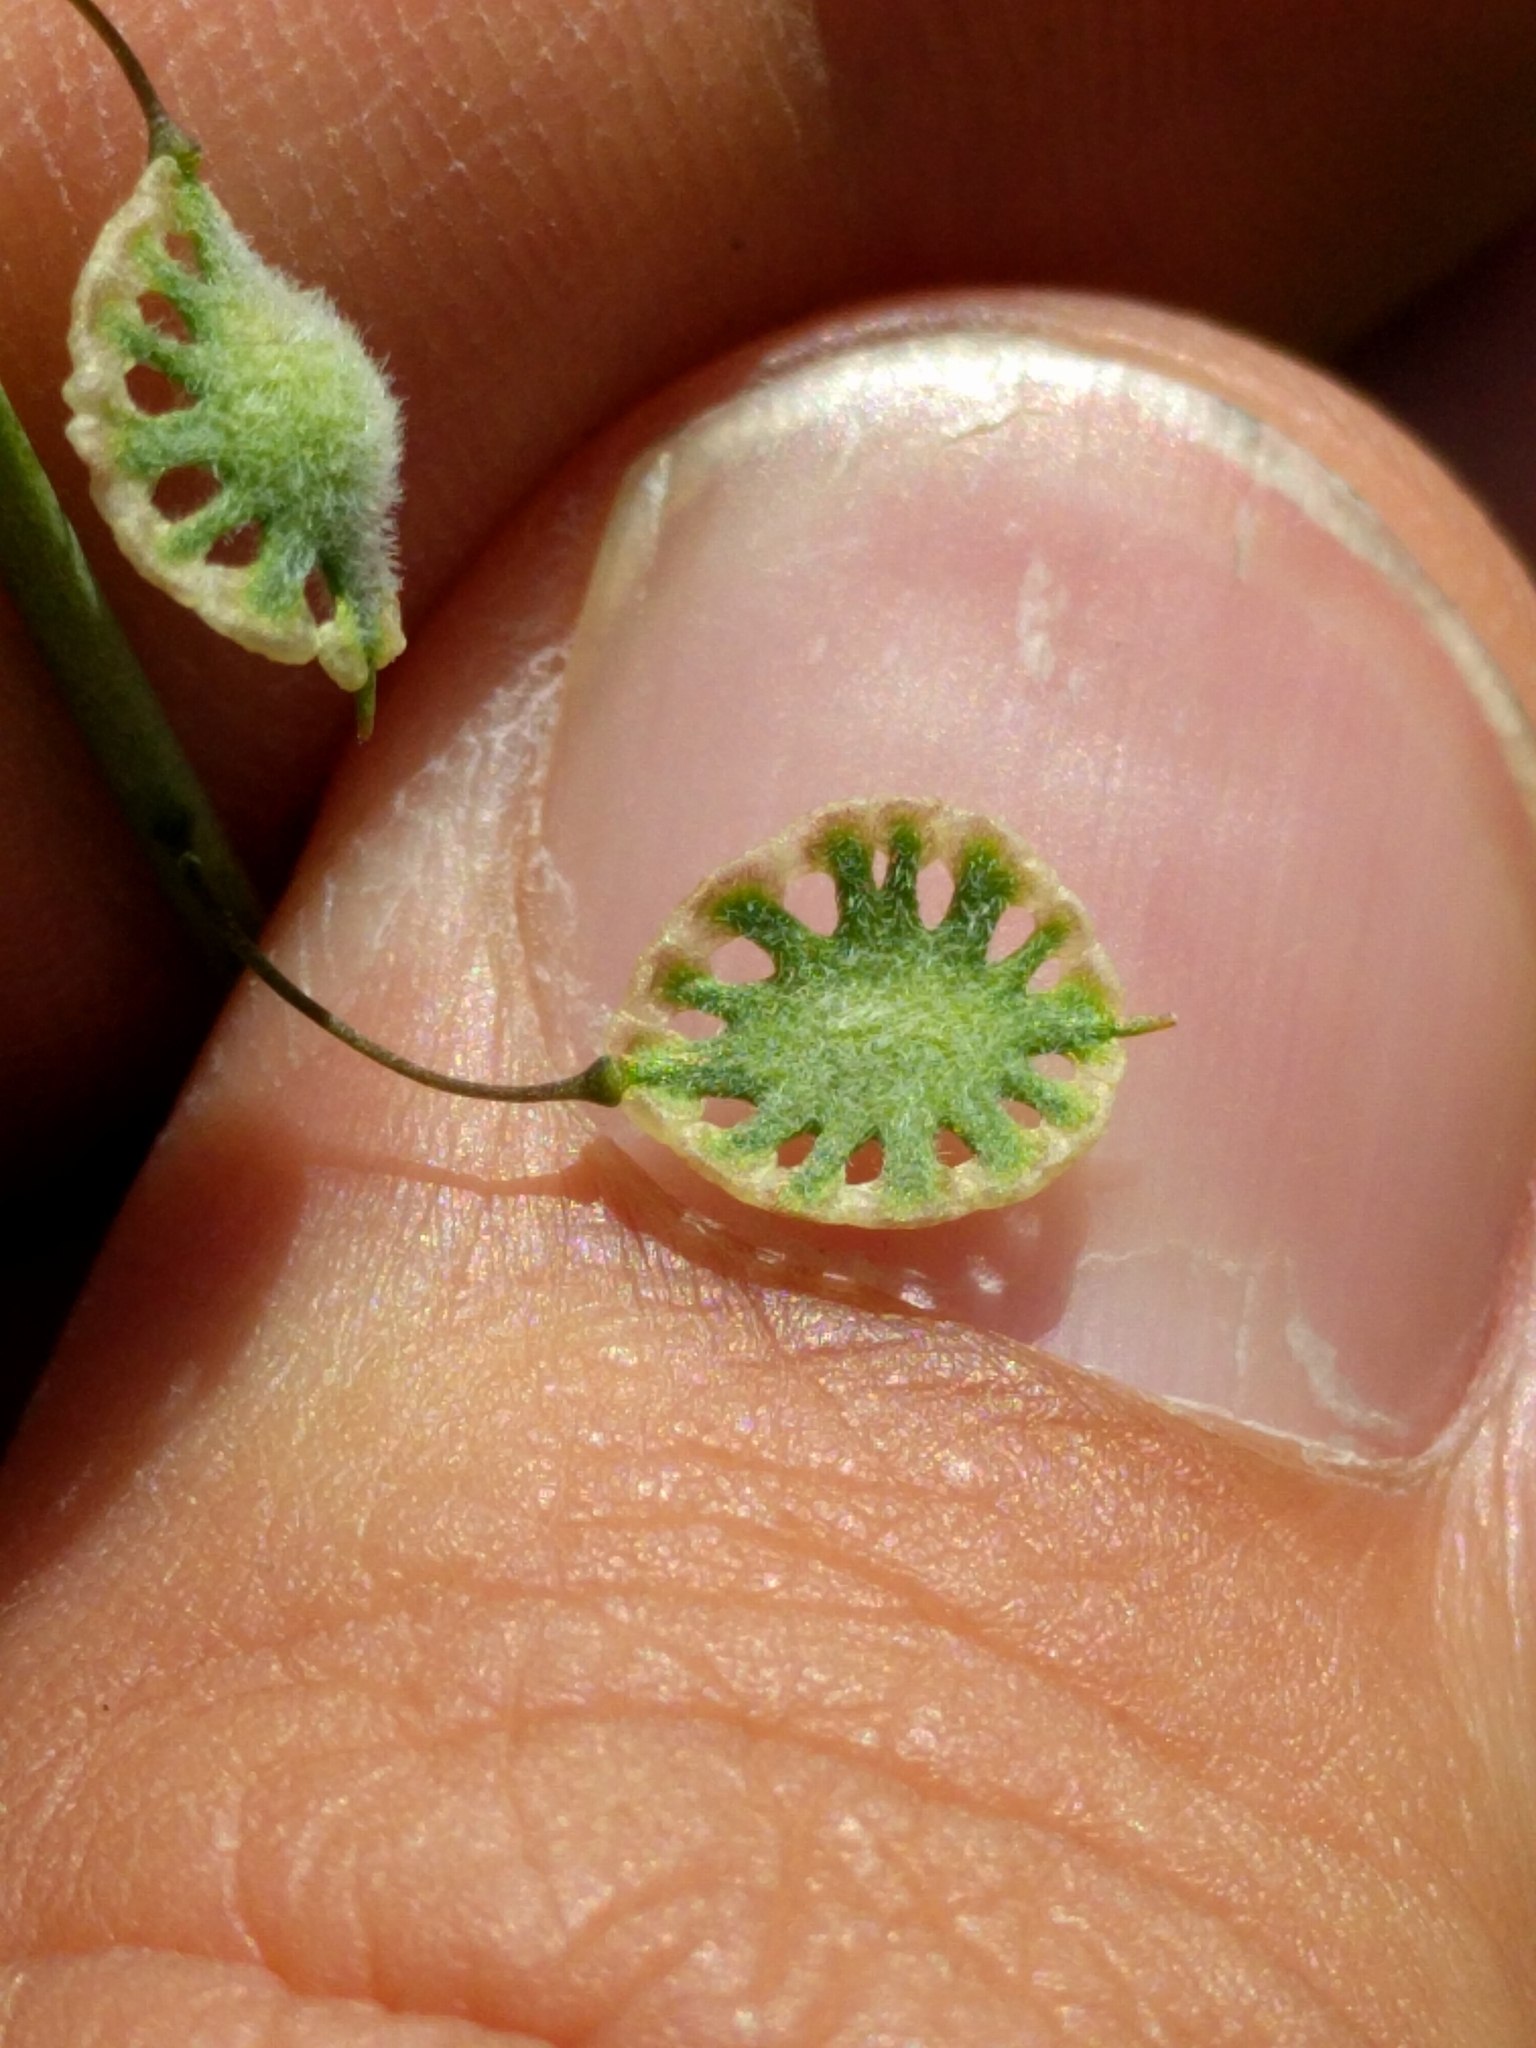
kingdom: Plantae
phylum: Tracheophyta
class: Magnoliopsida
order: Brassicales
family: Brassicaceae
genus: Thysanocarpus
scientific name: Thysanocarpus curvipes
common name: Sand fringepod
